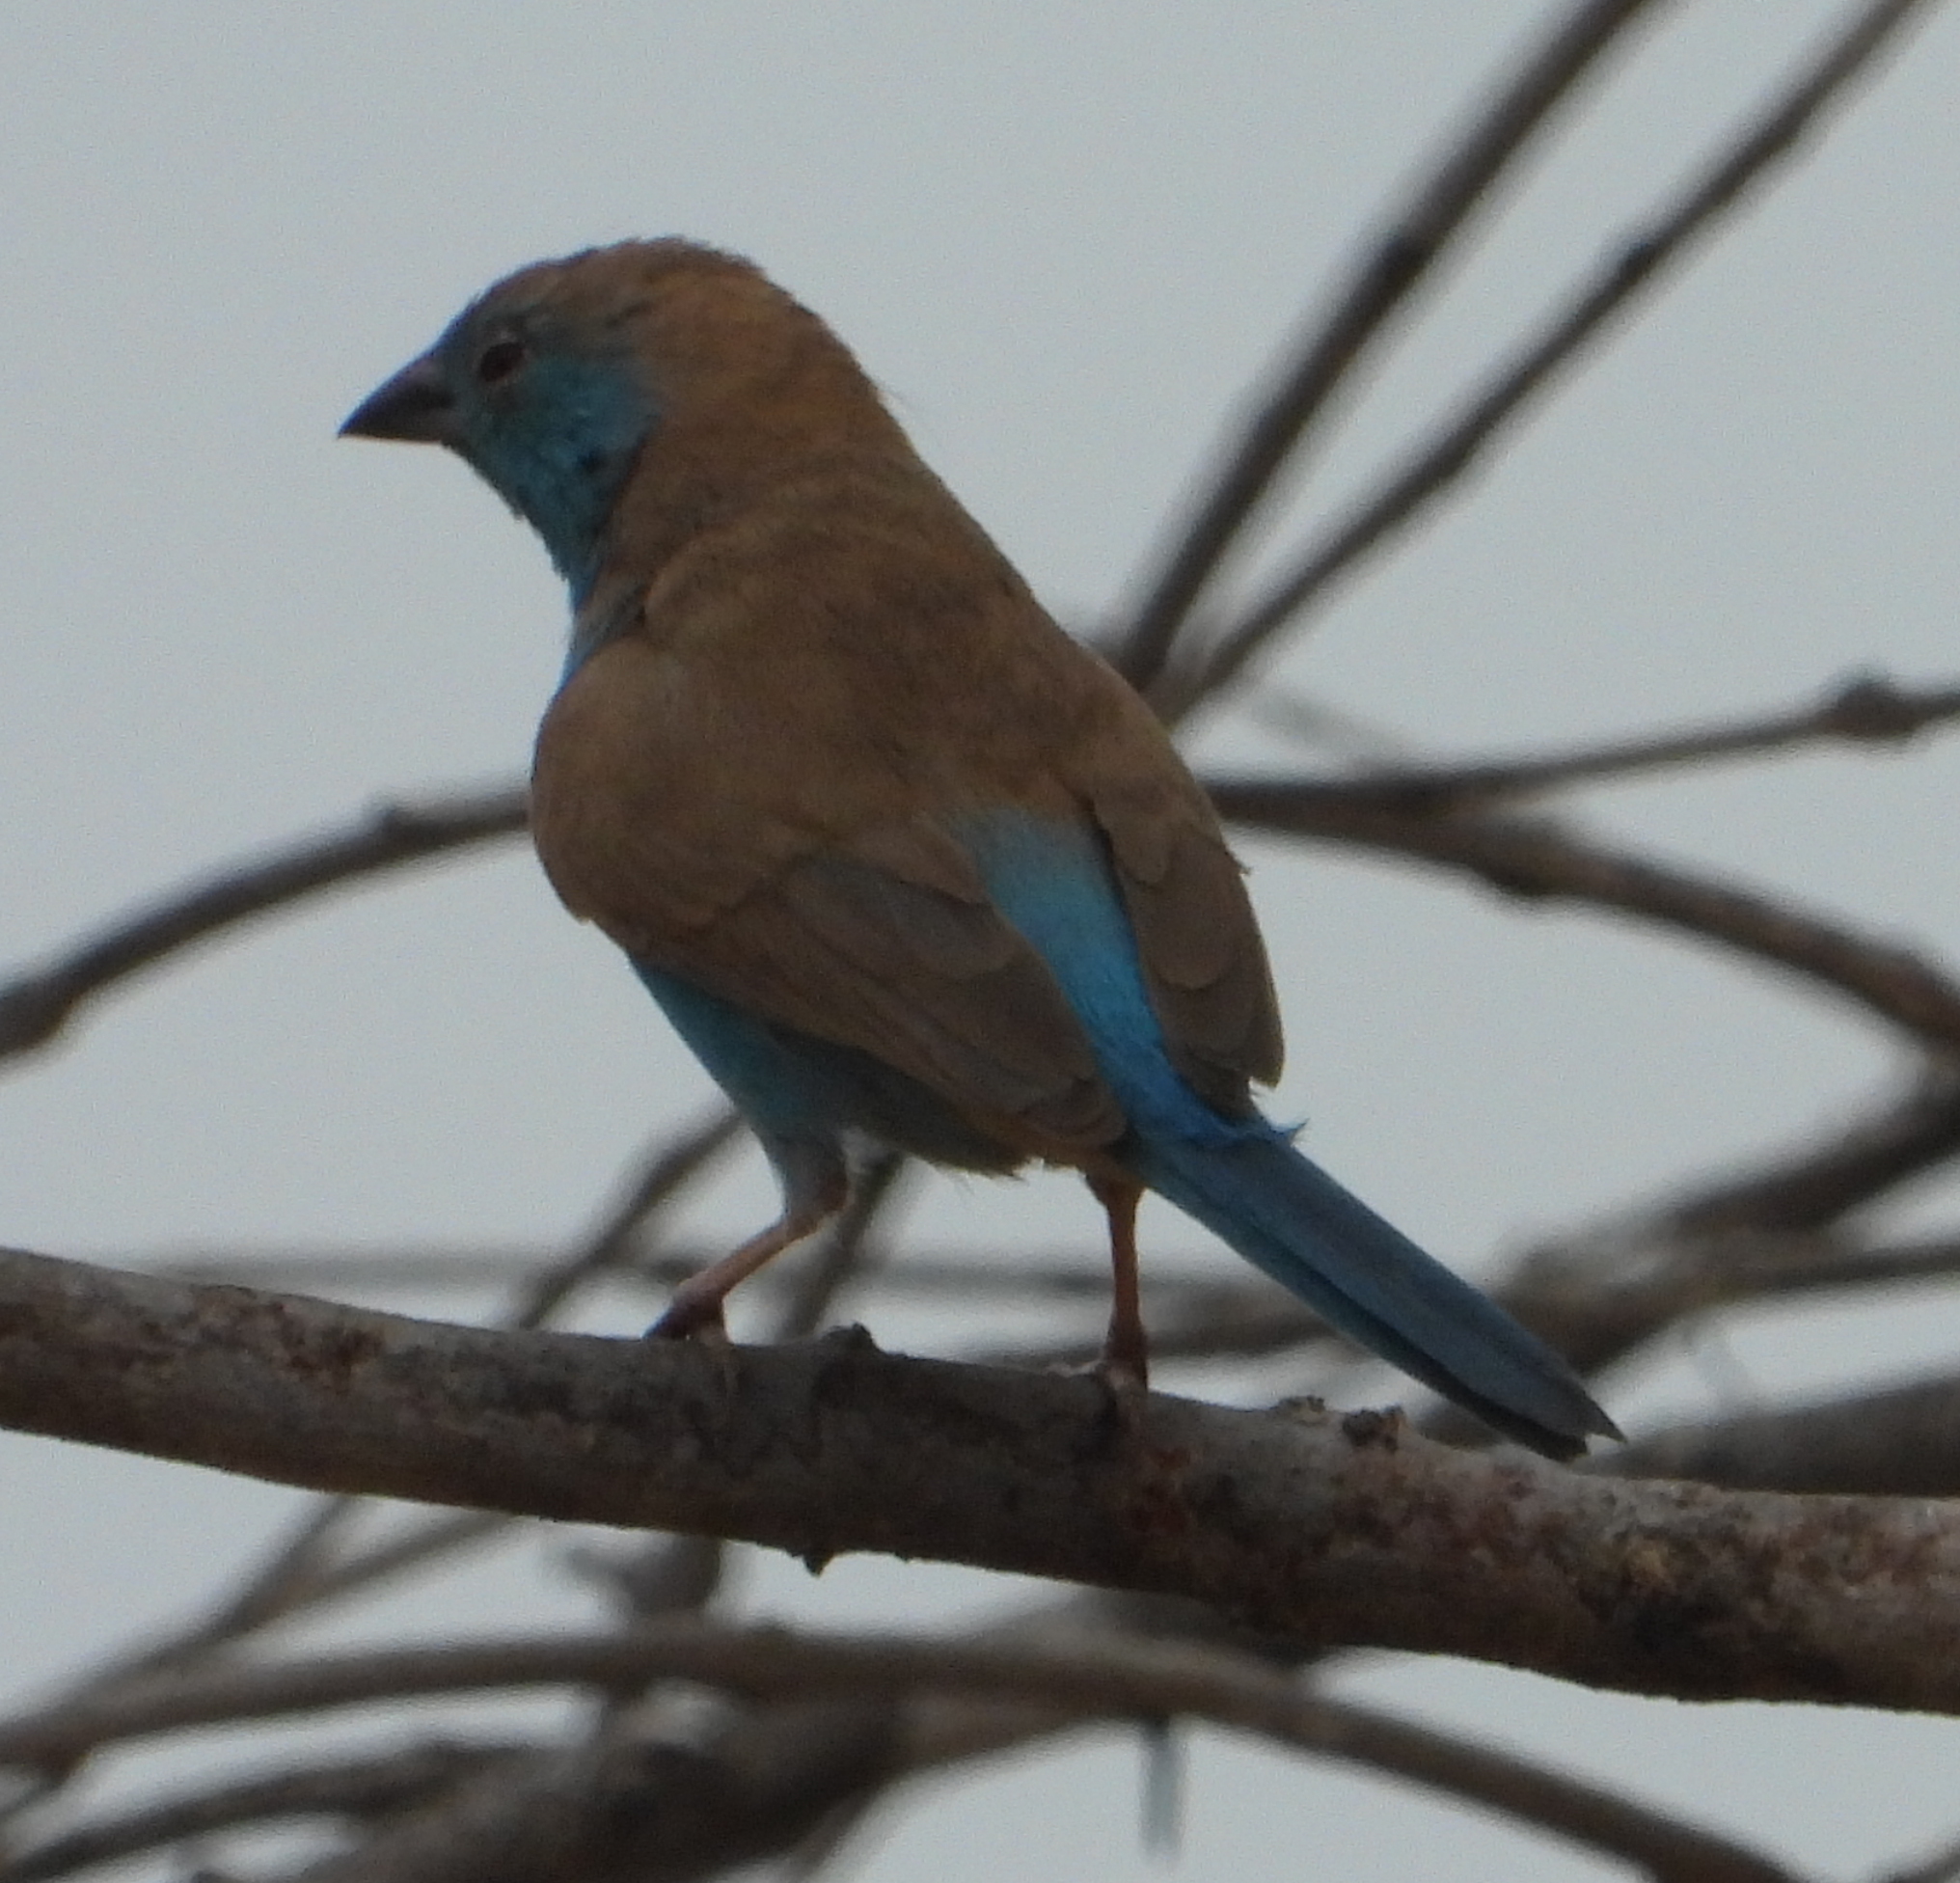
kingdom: Animalia
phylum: Chordata
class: Aves
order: Passeriformes
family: Estrildidae
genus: Uraeginthus
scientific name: Uraeginthus angolensis
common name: Blue waxbill
